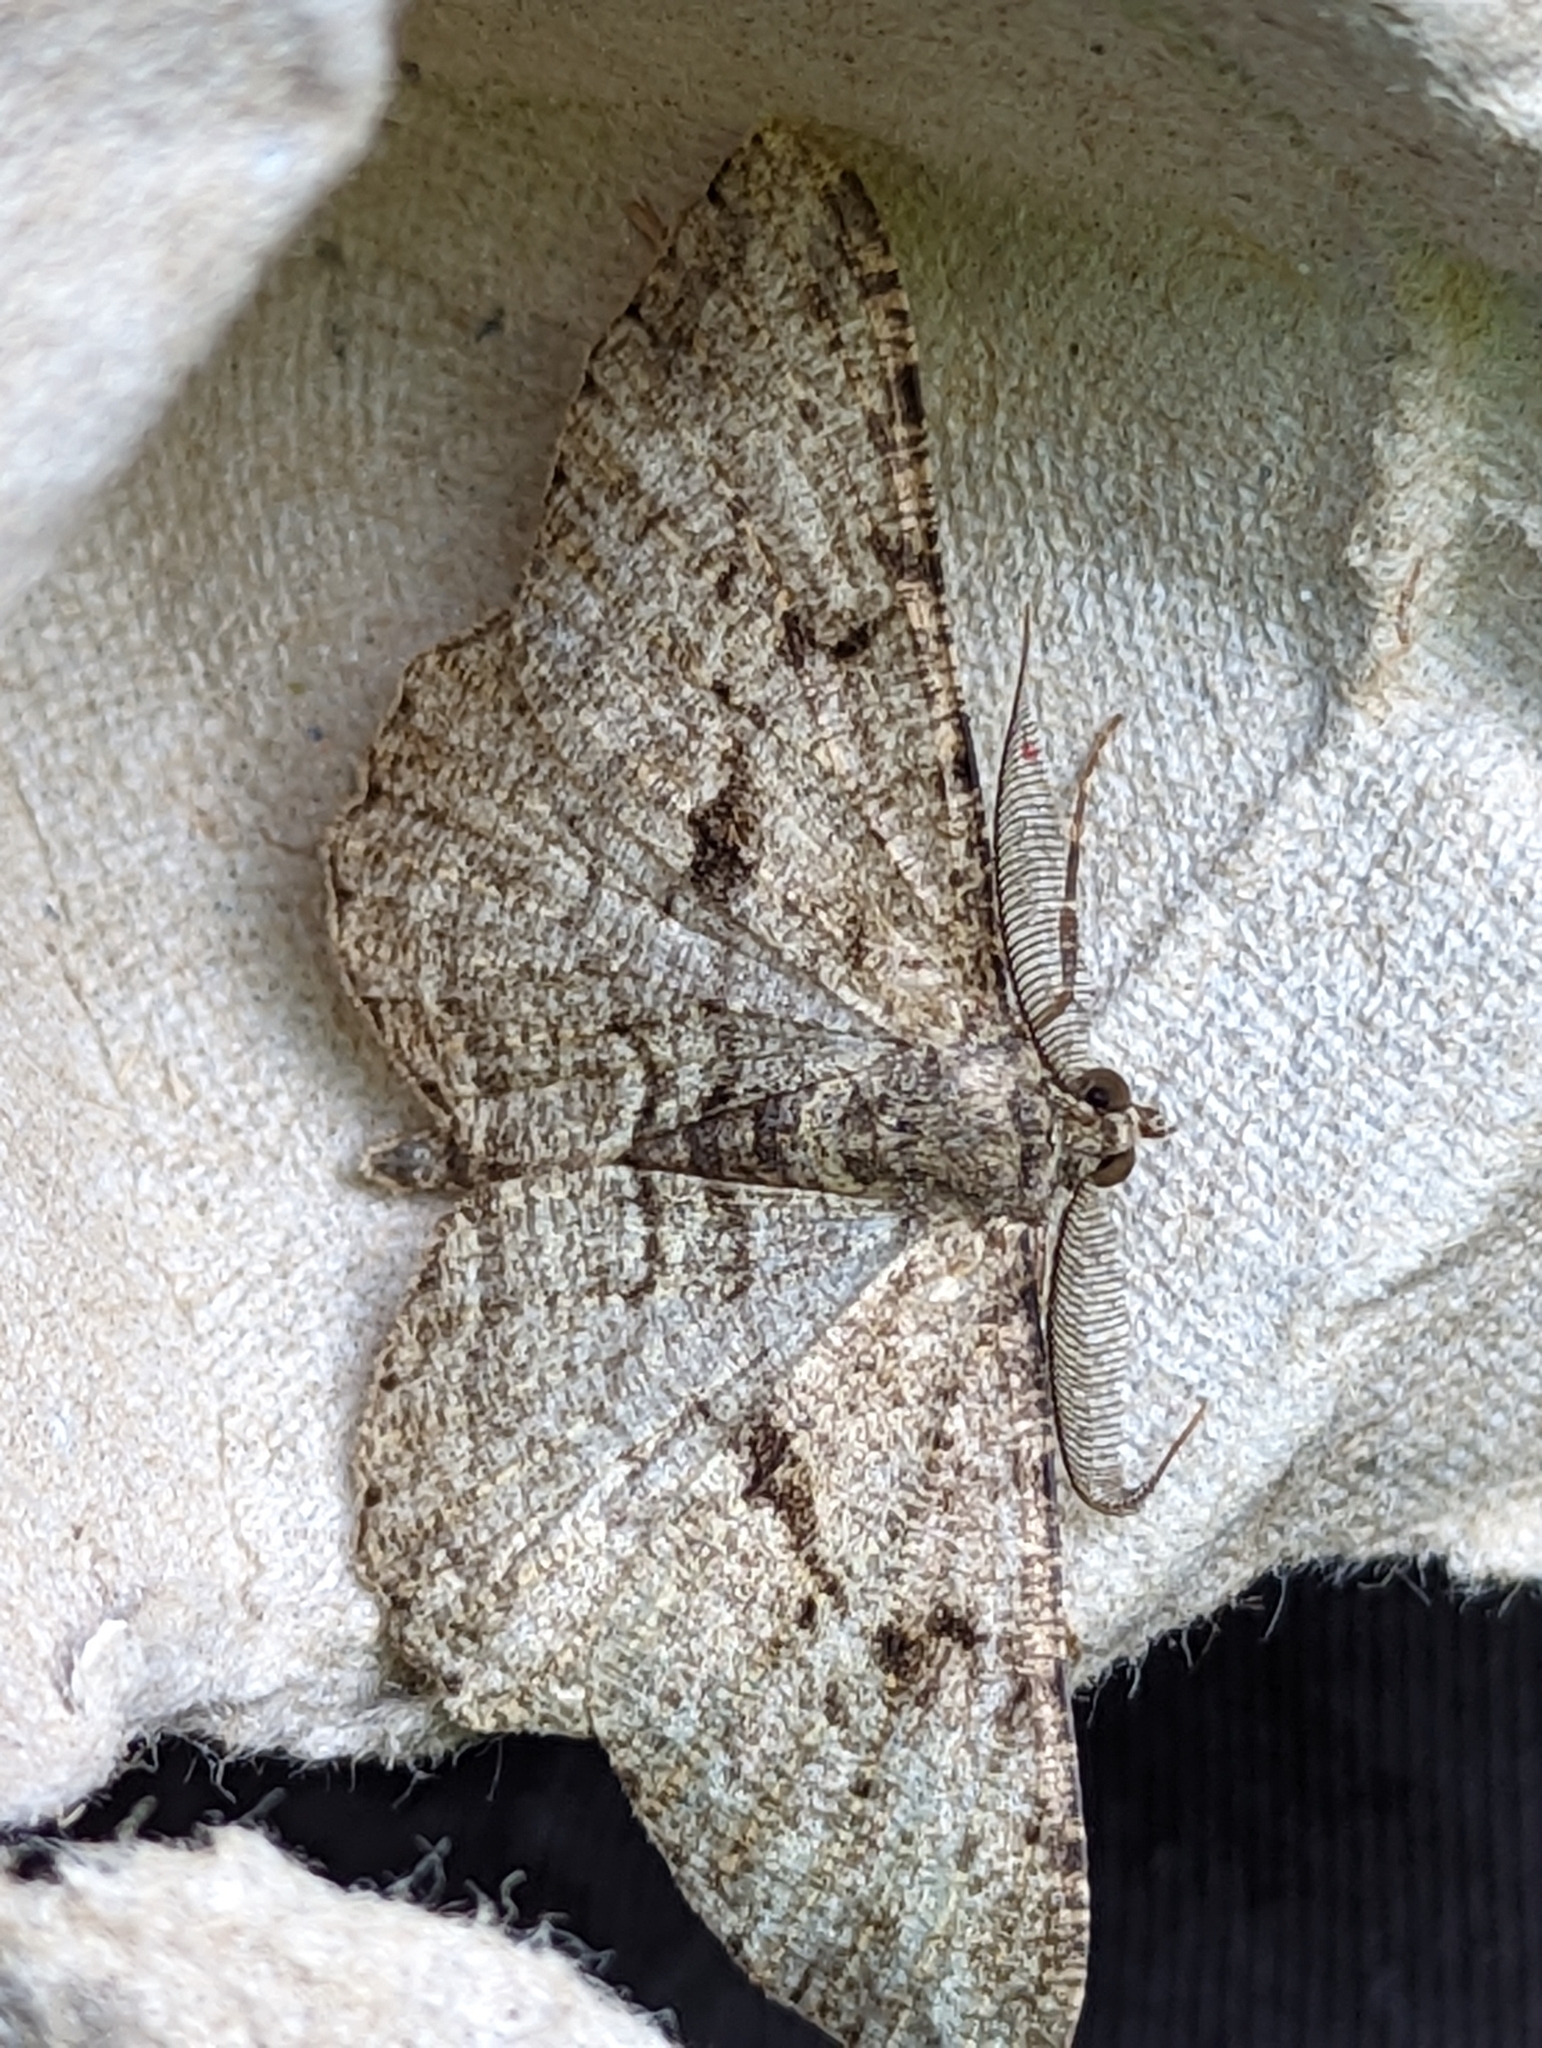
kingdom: Animalia
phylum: Arthropoda
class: Insecta
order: Lepidoptera
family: Geometridae
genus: Peribatodes
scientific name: Peribatodes rhomboidaria
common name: Willow beauty
